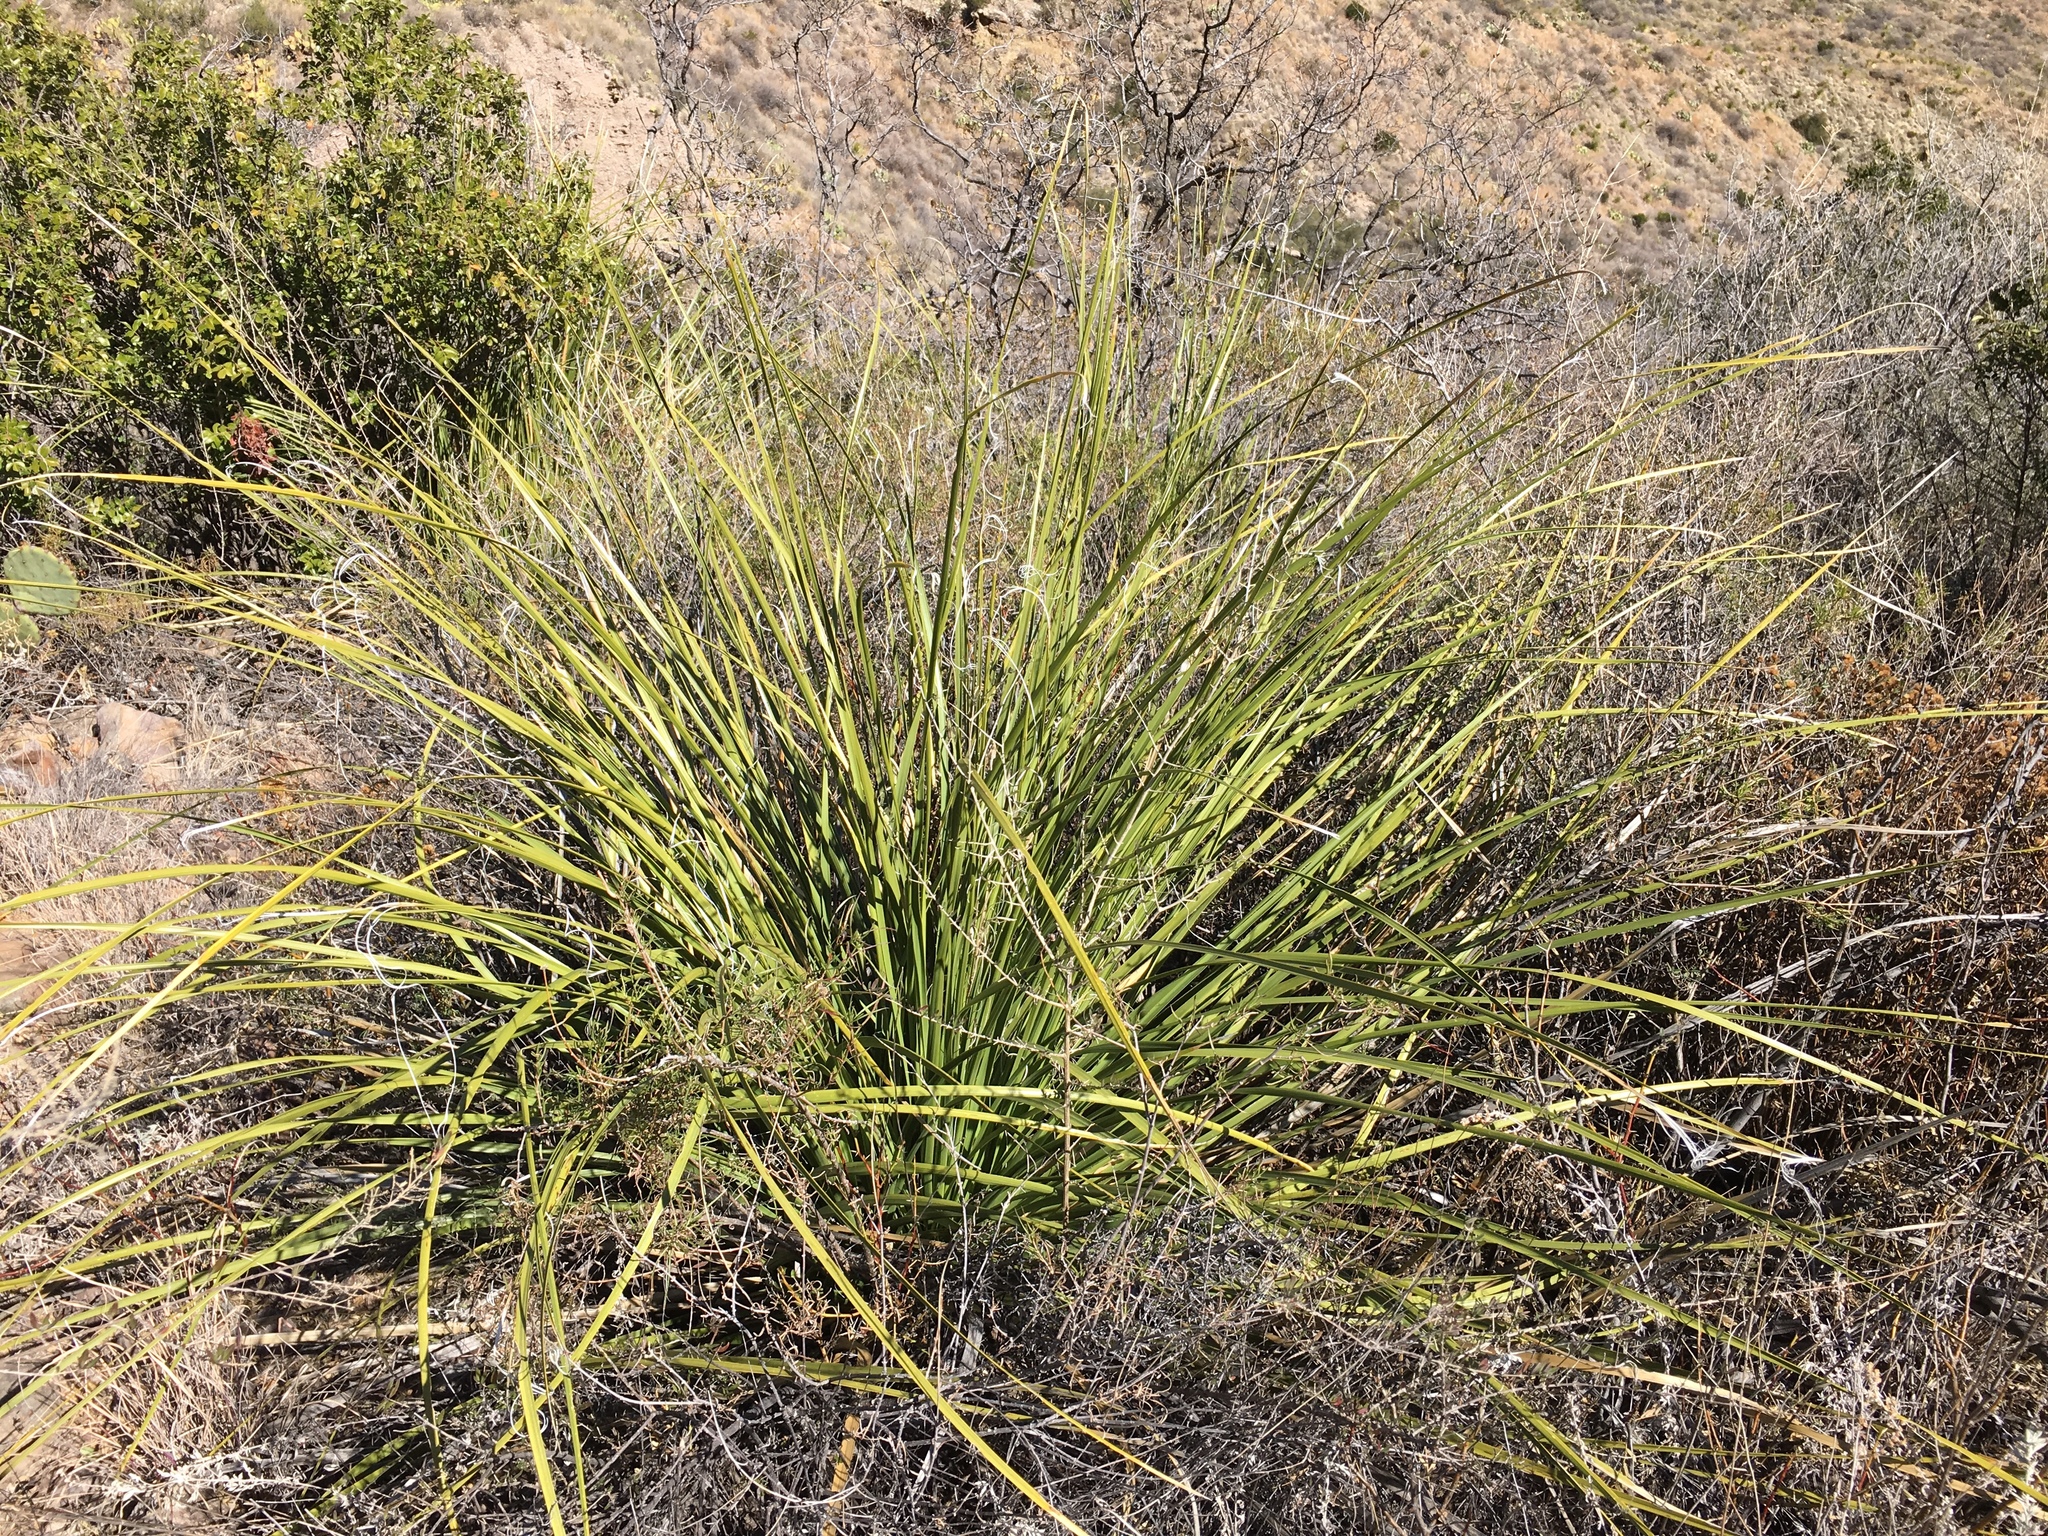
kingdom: Plantae
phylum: Tracheophyta
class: Liliopsida
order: Asparagales
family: Asparagaceae
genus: Nolina
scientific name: Nolina erumpens
